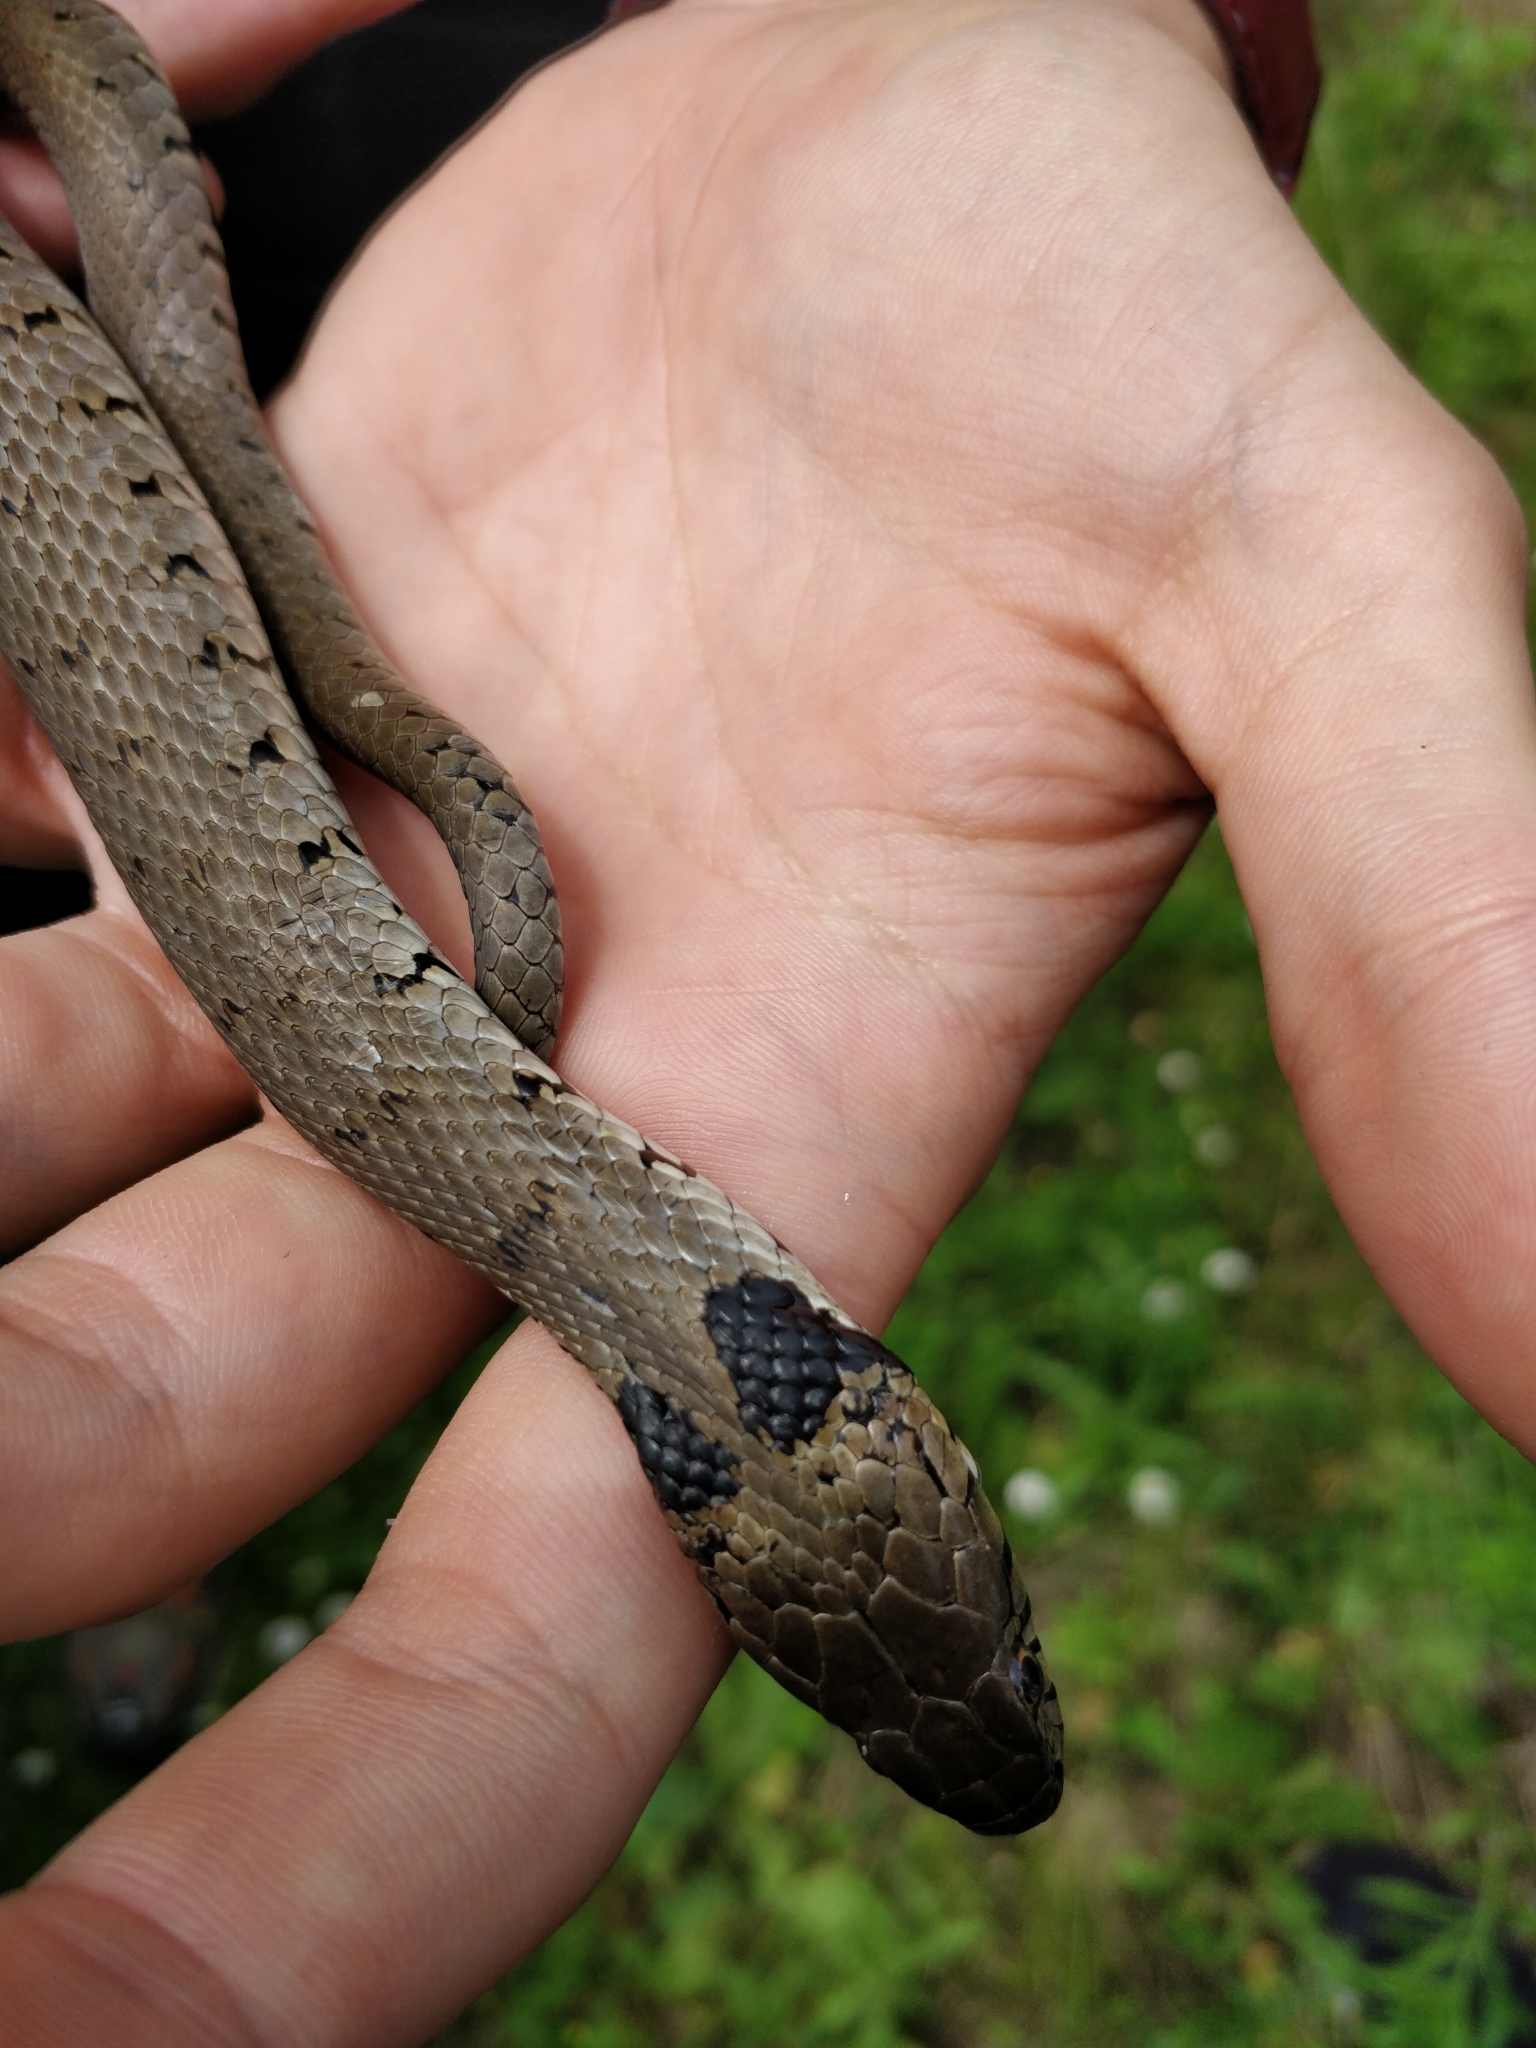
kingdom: Animalia
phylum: Chordata
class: Squamata
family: Colubridae
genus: Natrix
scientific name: Natrix helvetica
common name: Banded grass snake
